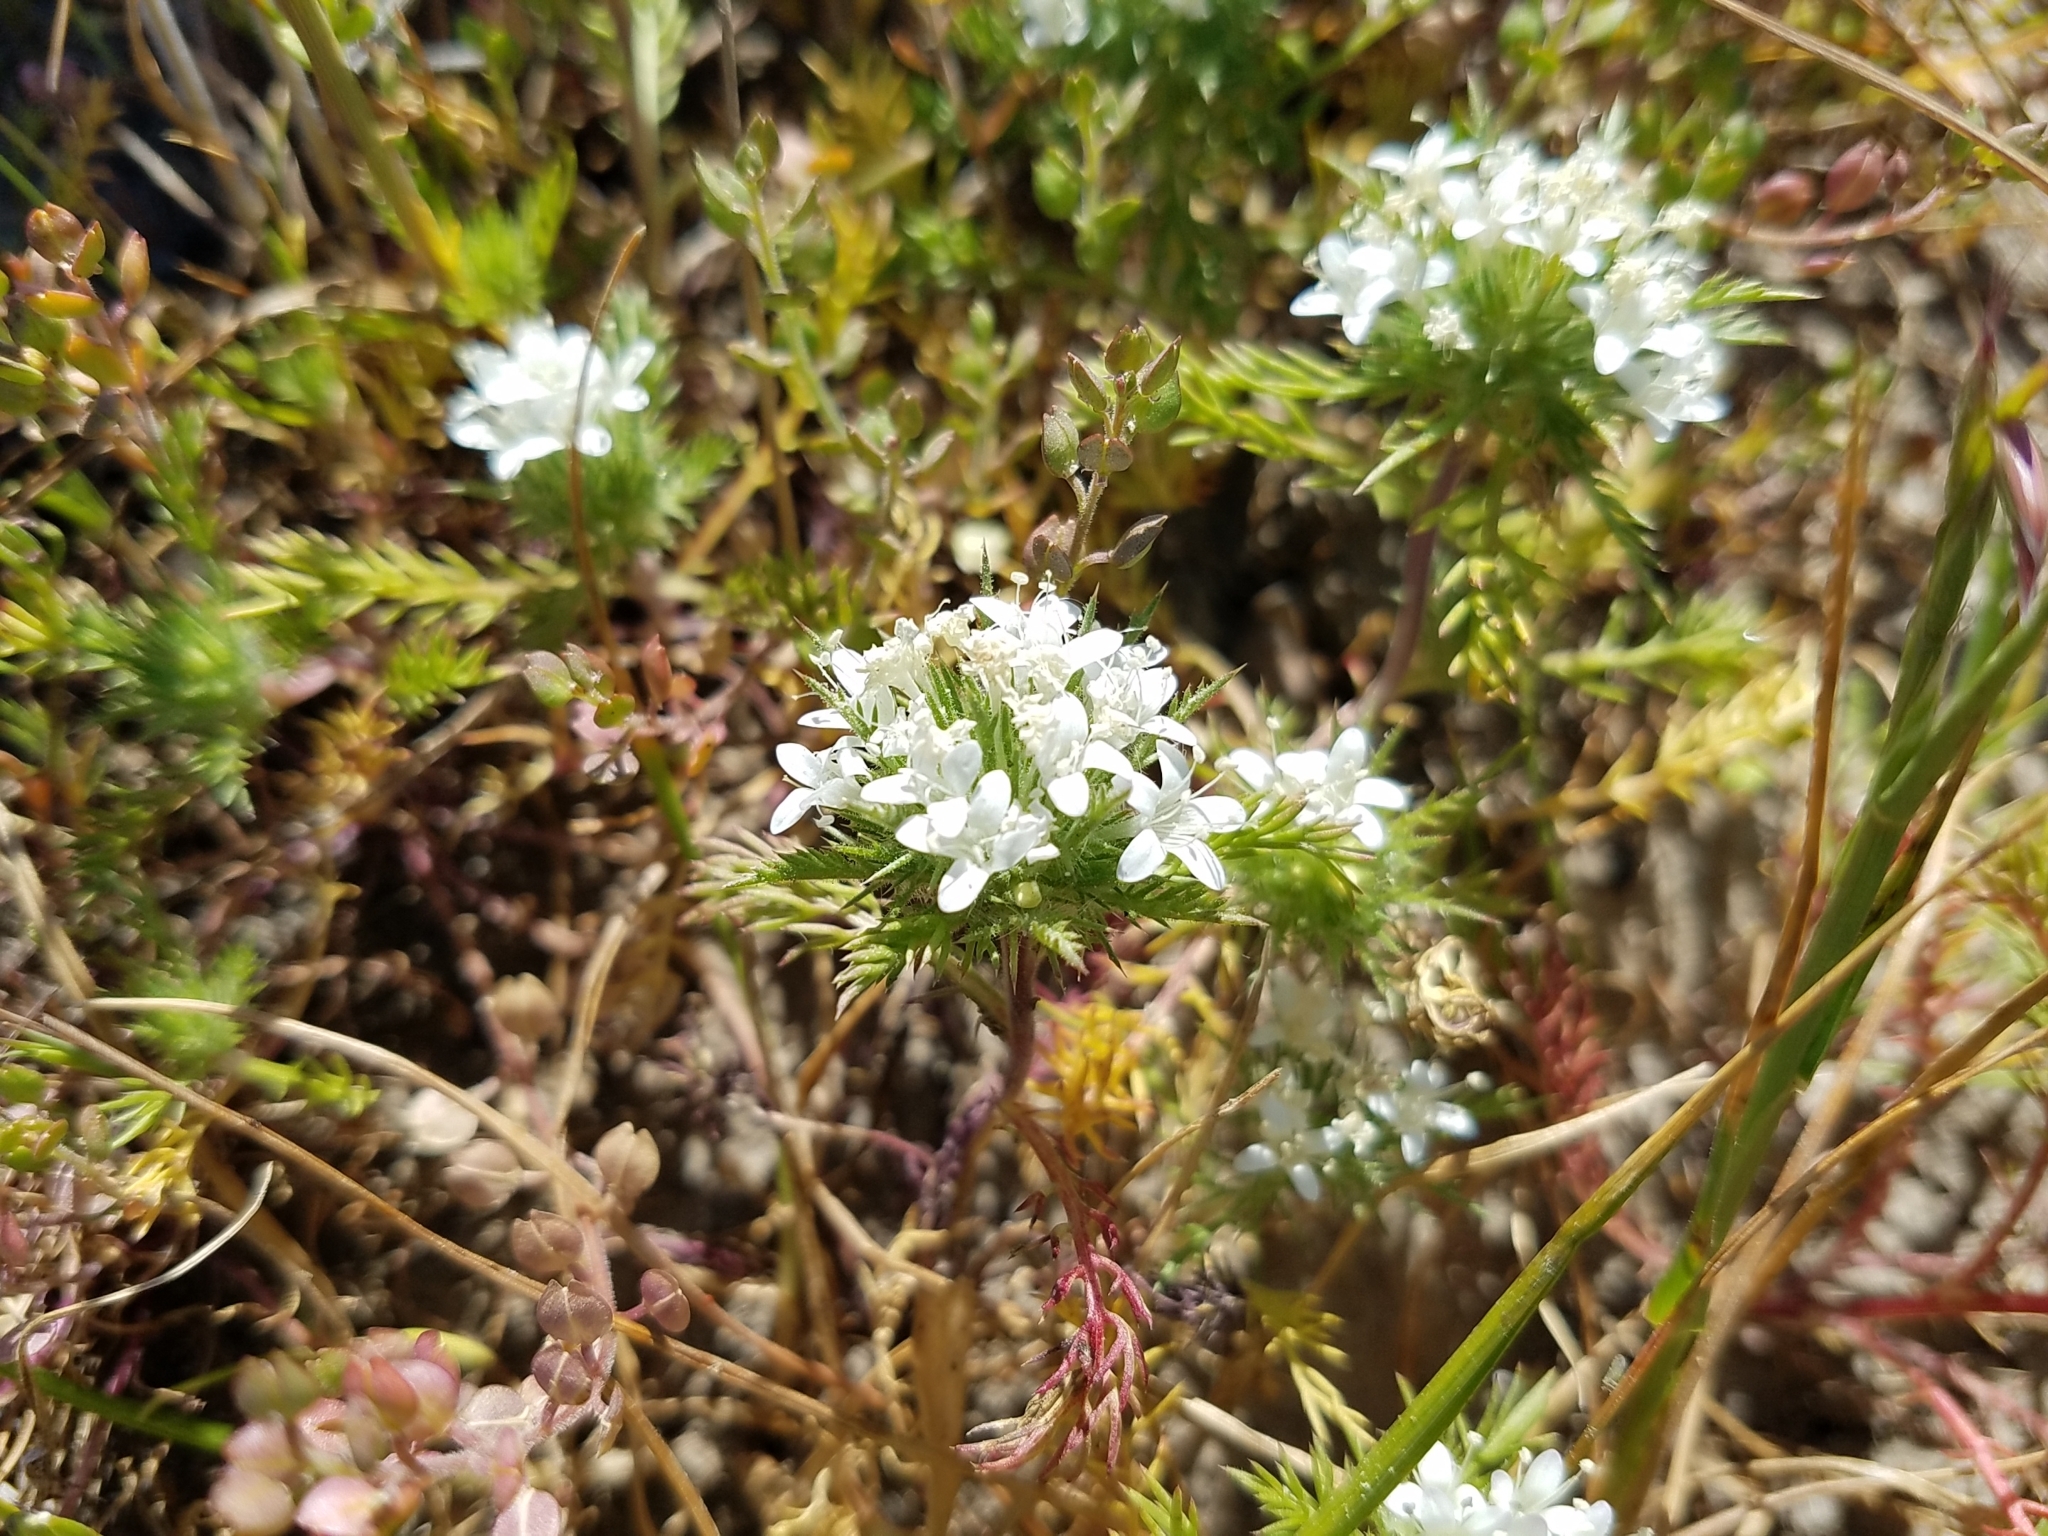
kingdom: Plantae
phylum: Tracheophyta
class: Magnoliopsida
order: Ericales
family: Polemoniaceae
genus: Navarretia
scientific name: Navarretia cotulifolia
